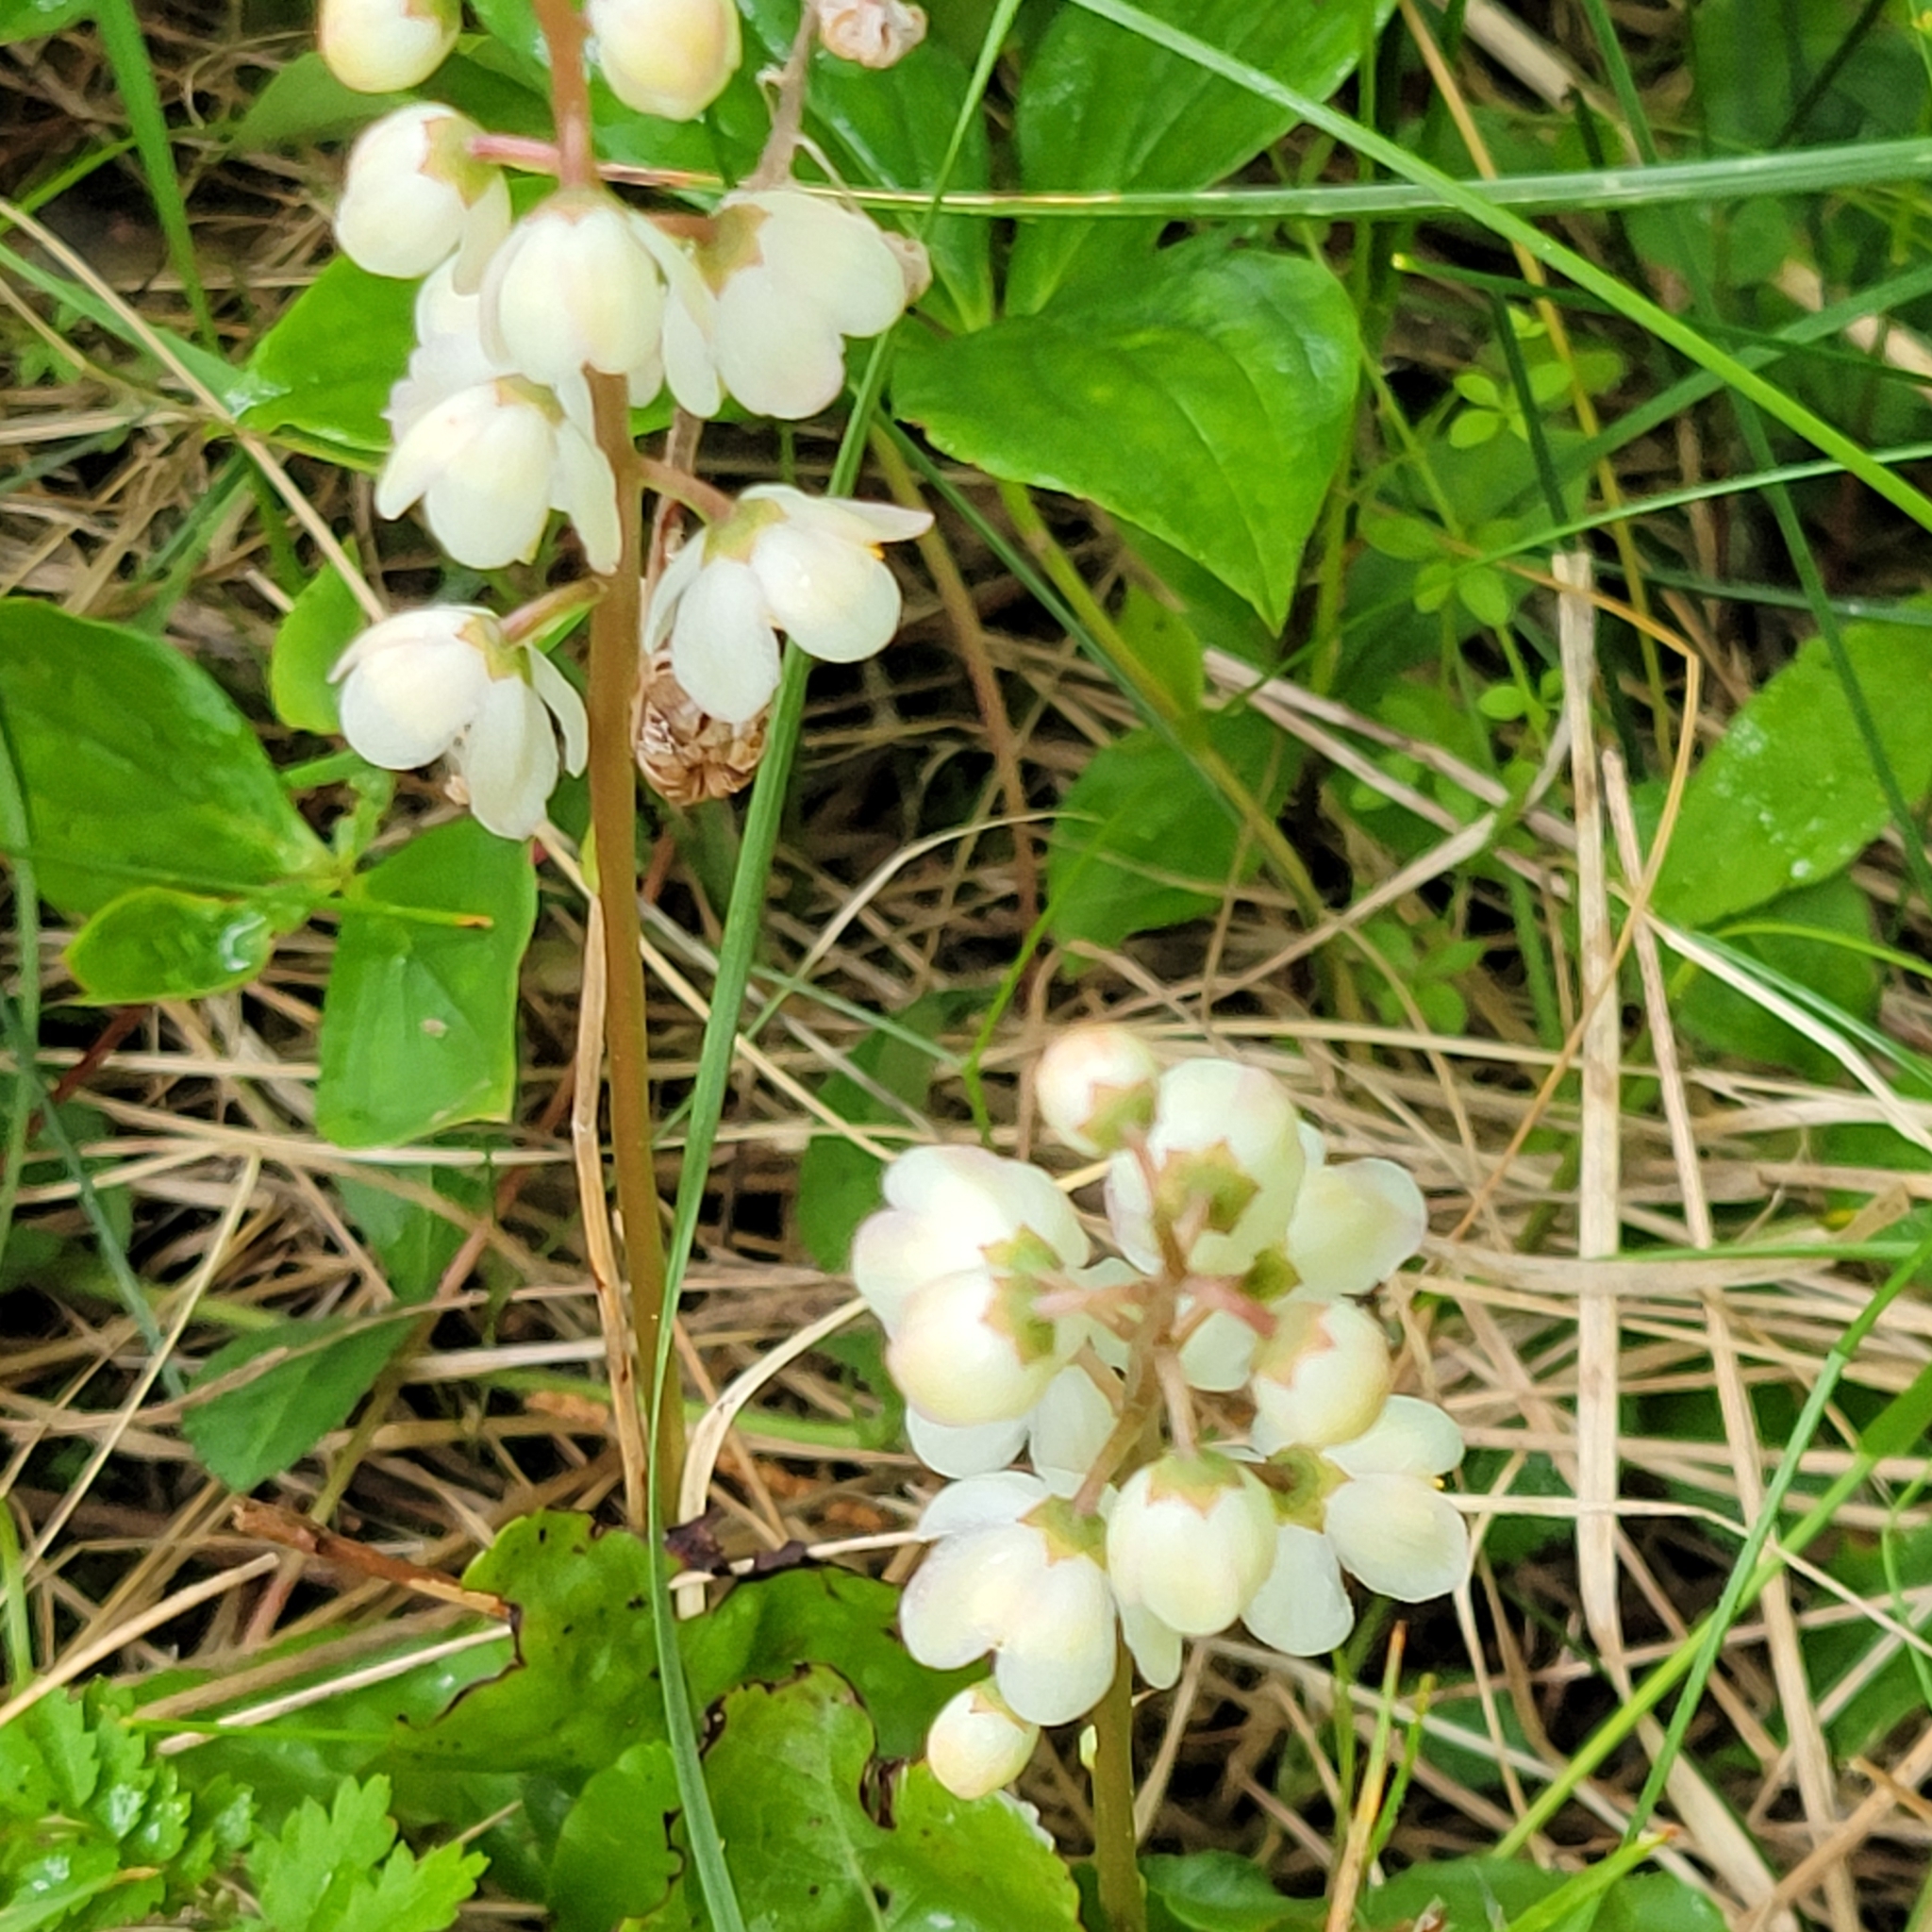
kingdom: Plantae
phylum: Tracheophyta
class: Magnoliopsida
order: Ericales
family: Ericaceae
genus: Pyrola
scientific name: Pyrola elliptica
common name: Shinleaf
